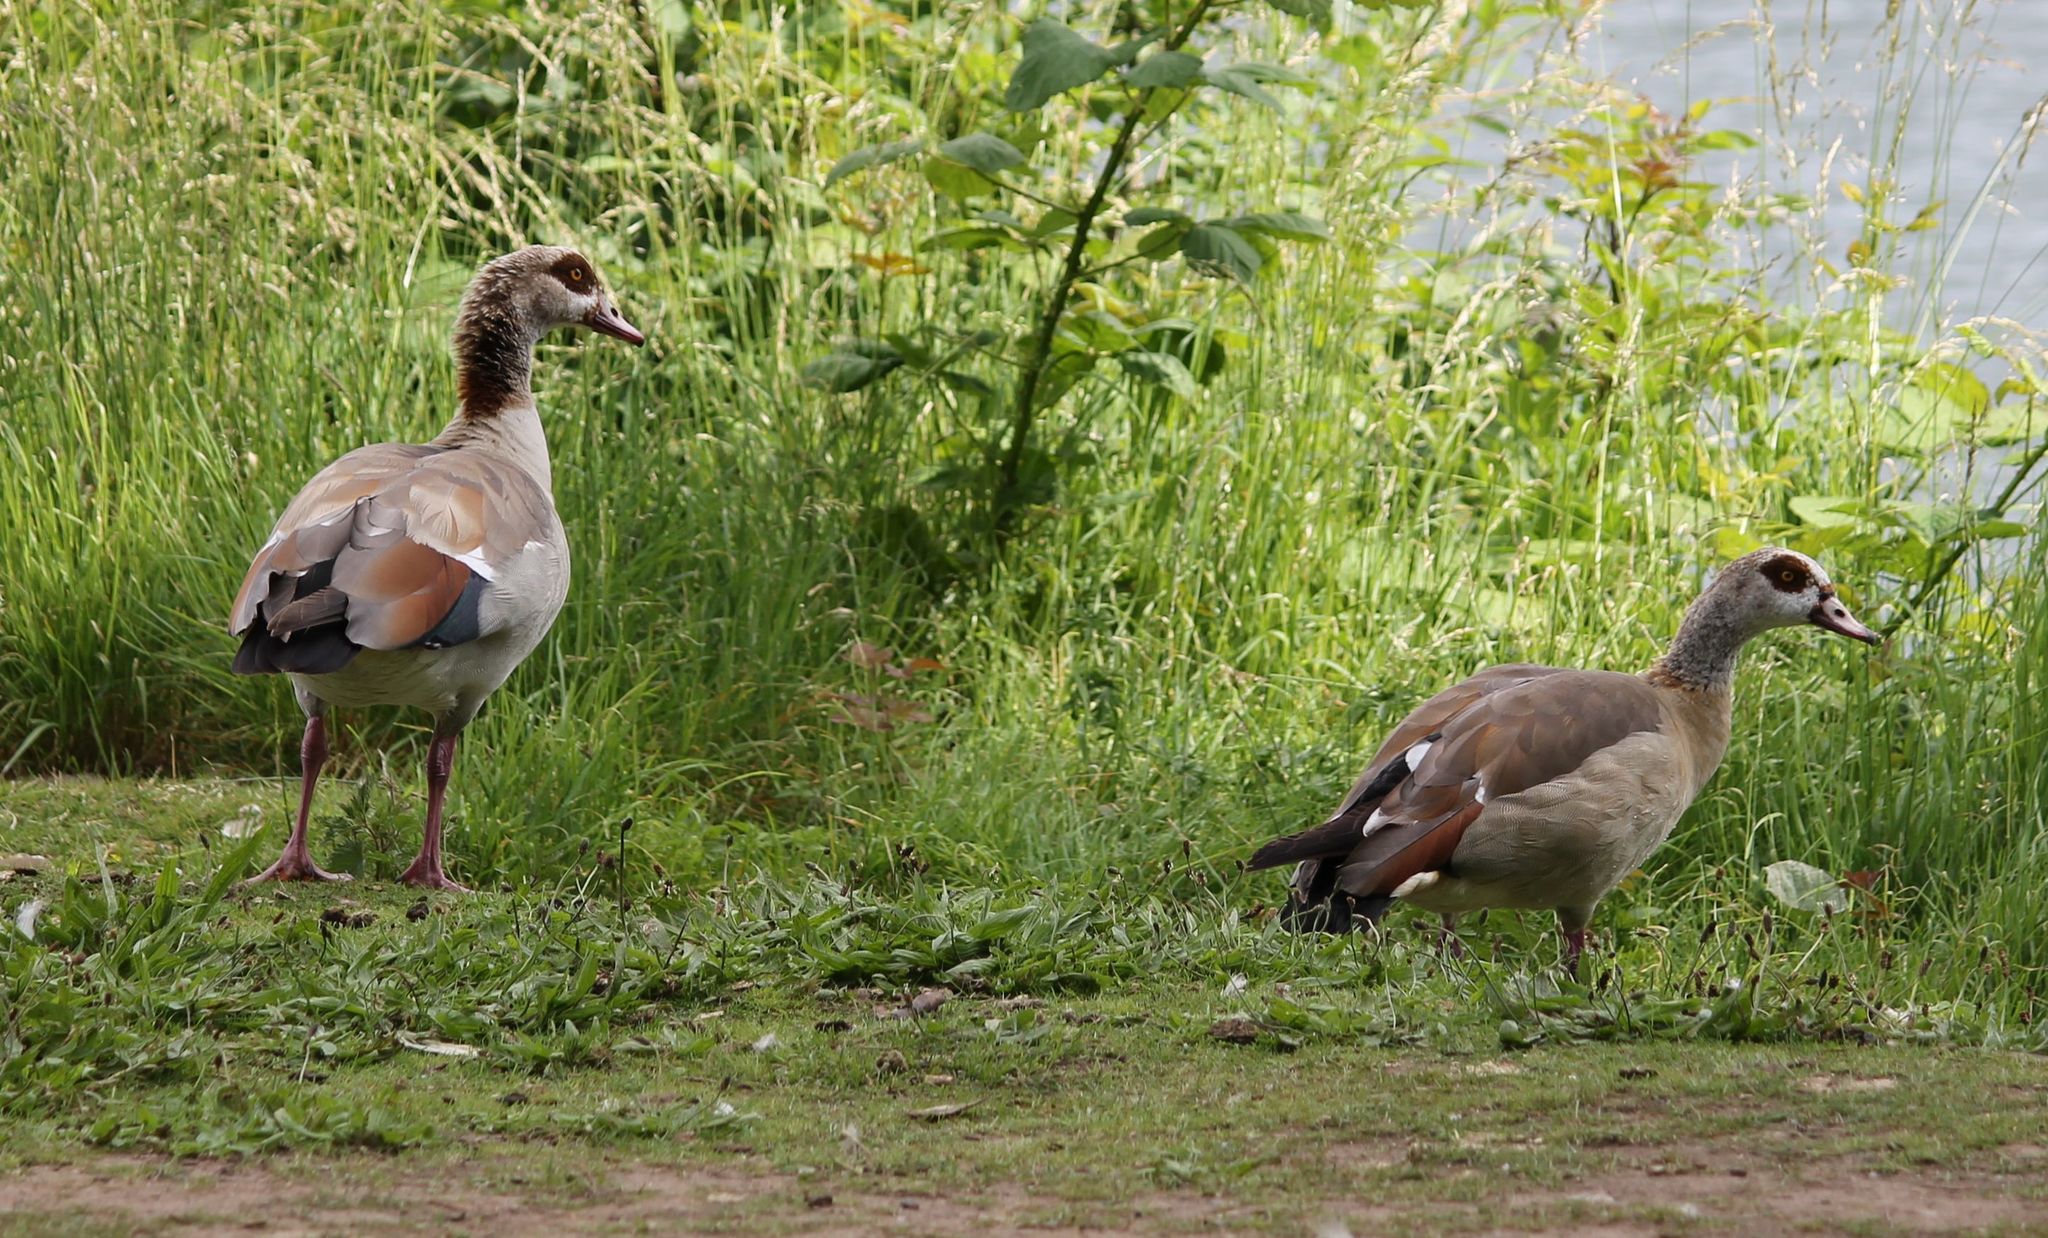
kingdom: Animalia
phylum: Chordata
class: Aves
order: Anseriformes
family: Anatidae
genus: Alopochen
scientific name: Alopochen aegyptiaca
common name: Egyptian goose
